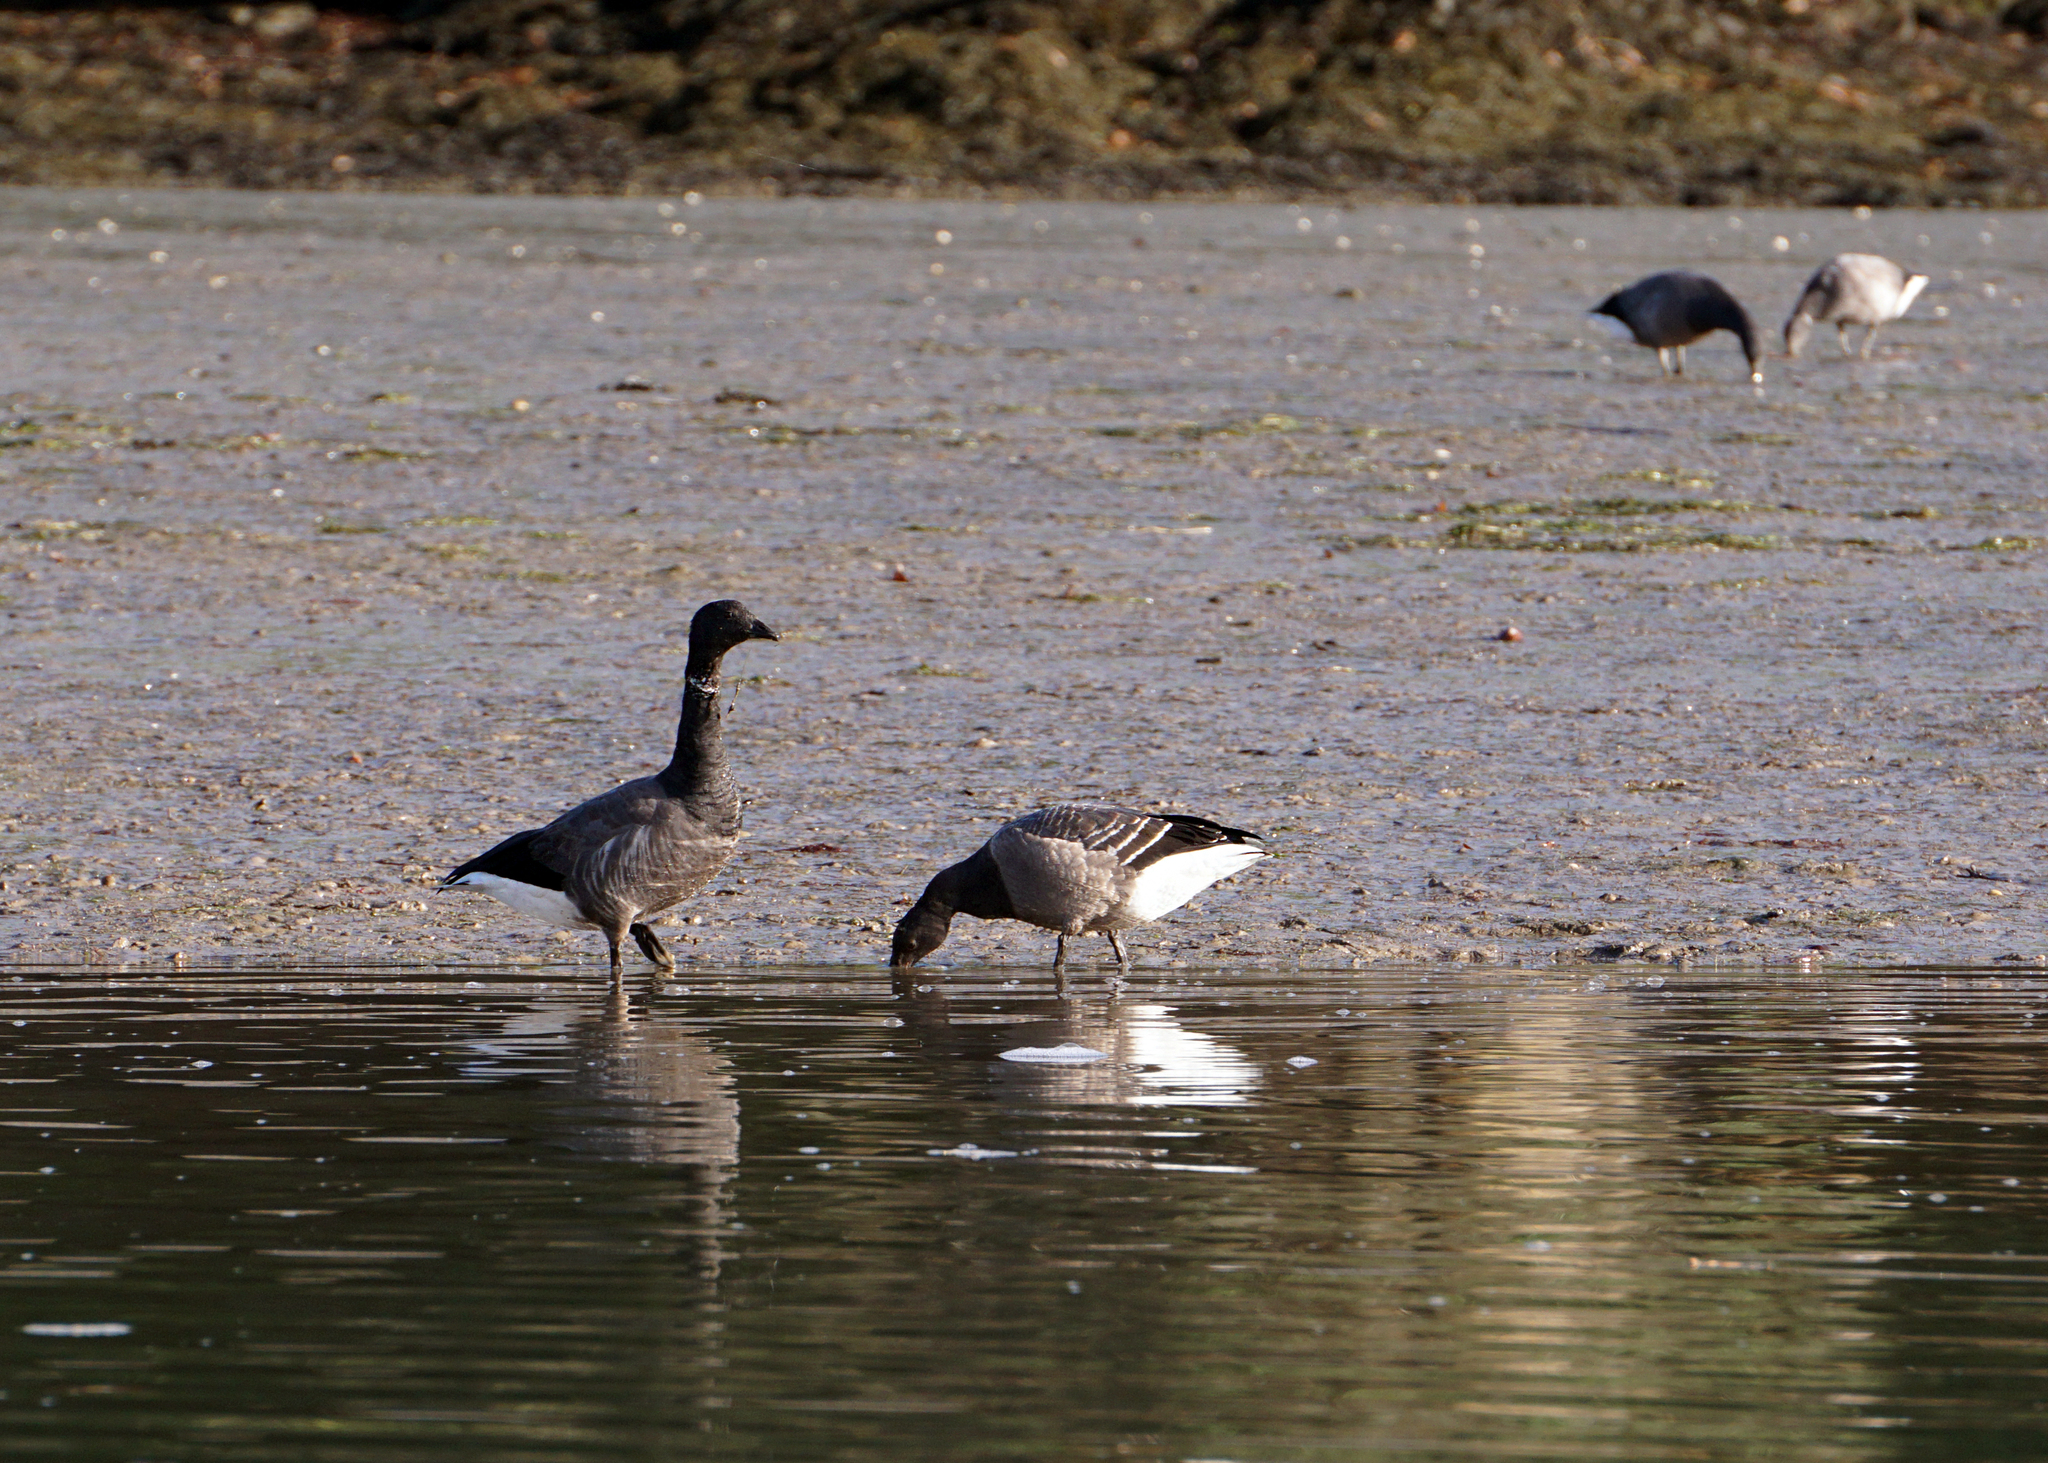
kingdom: Animalia
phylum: Chordata
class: Aves
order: Anseriformes
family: Anatidae
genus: Branta
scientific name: Branta bernicla
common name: Brant goose
